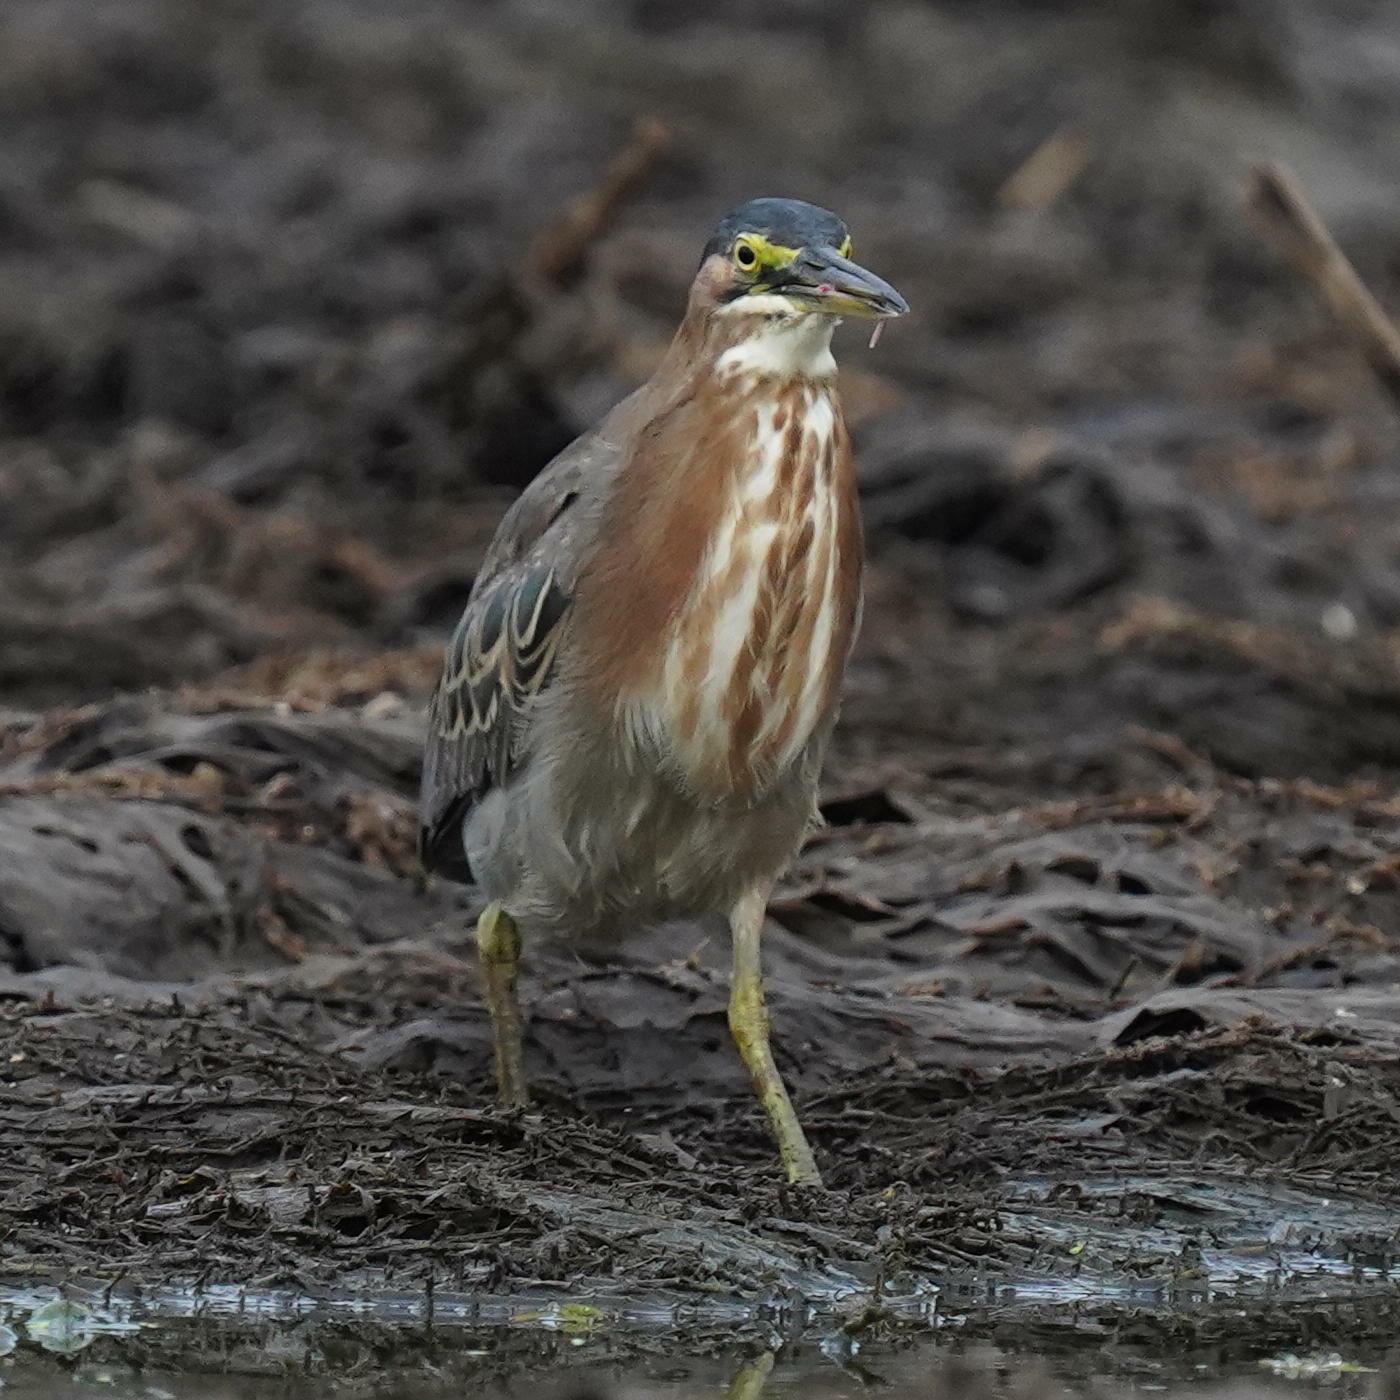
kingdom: Animalia
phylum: Chordata
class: Aves
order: Pelecaniformes
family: Ardeidae
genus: Butorides
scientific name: Butorides virescens
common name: Green heron
